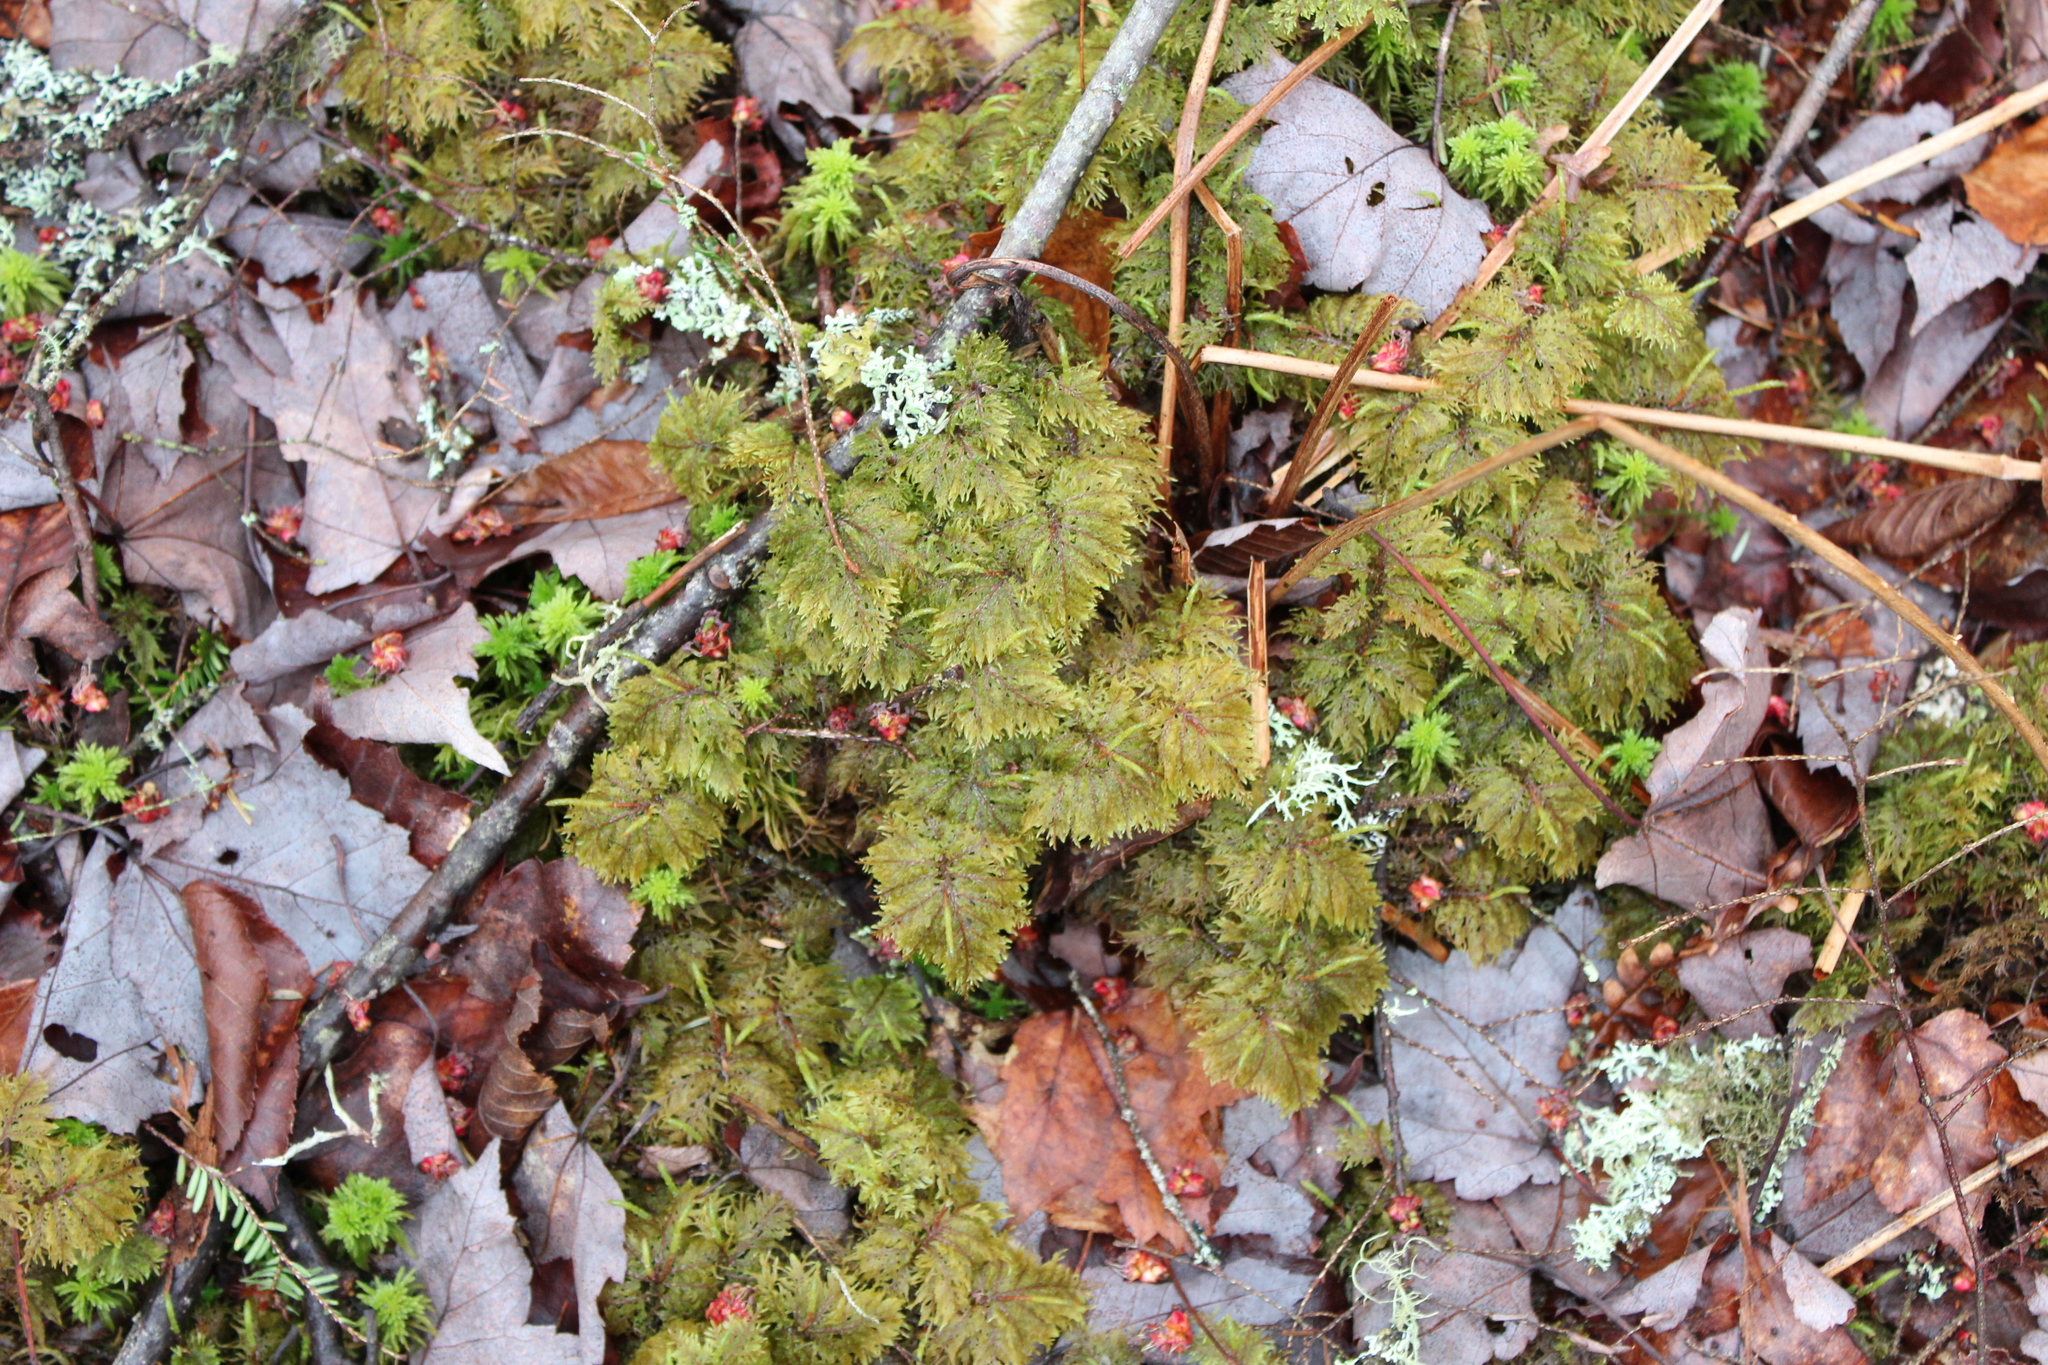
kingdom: Plantae
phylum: Bryophyta
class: Bryopsida
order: Hypnales
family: Hylocomiaceae
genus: Hylocomium
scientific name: Hylocomium splendens
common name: Stairstep moss
